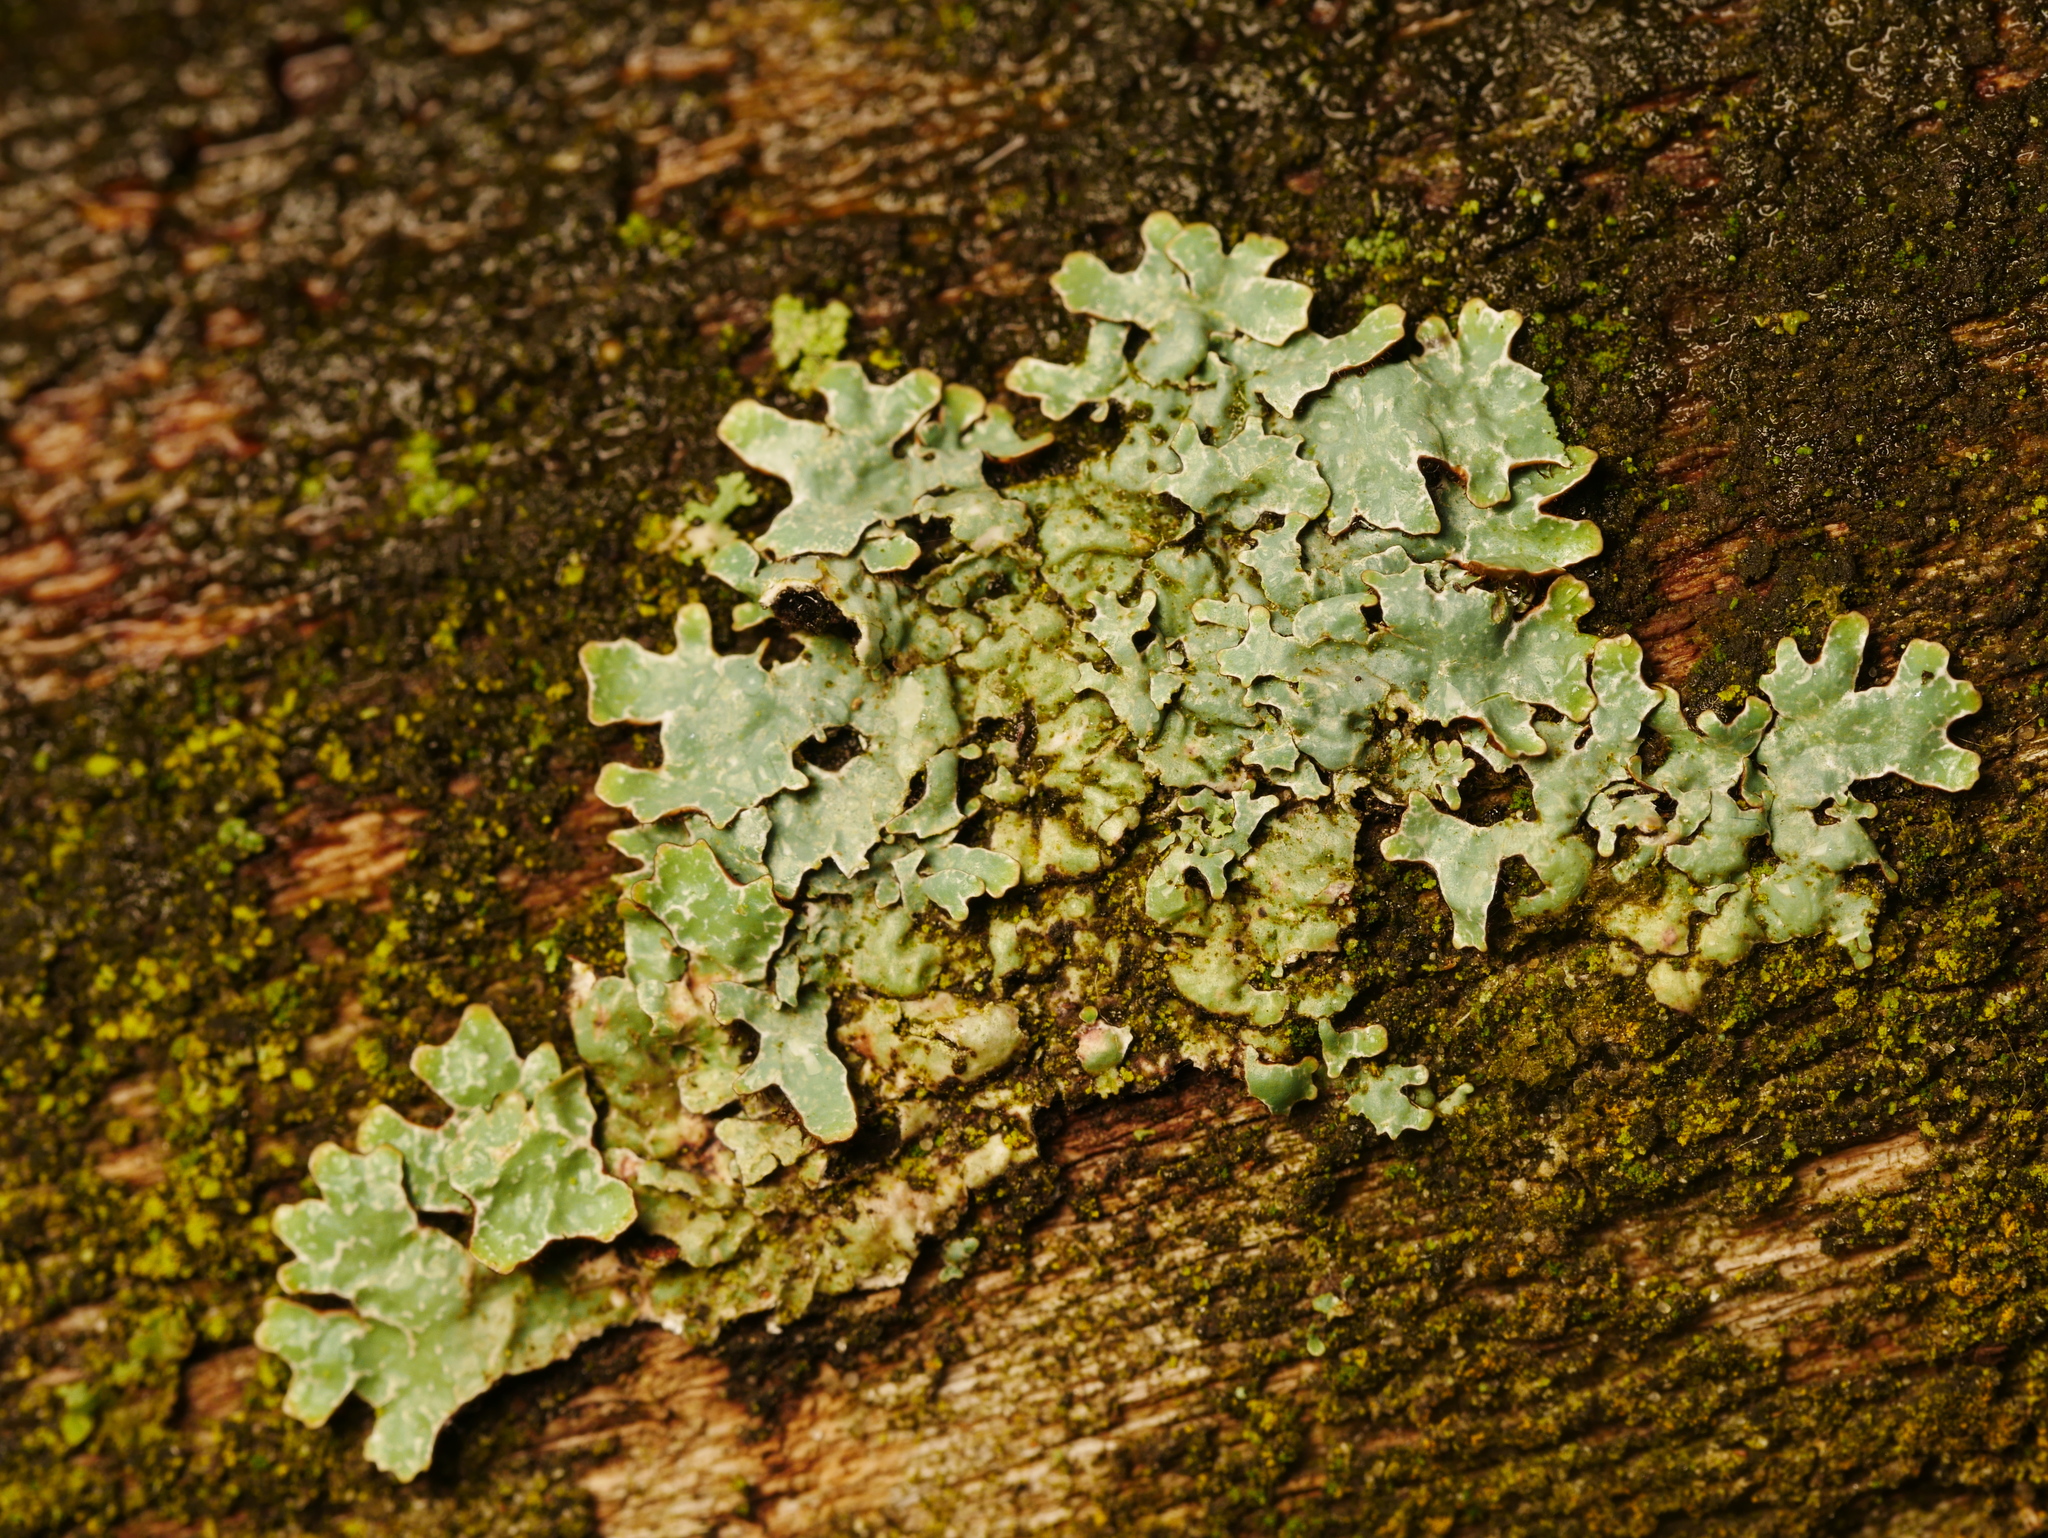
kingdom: Fungi
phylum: Ascomycota
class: Lecanoromycetes
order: Lecanorales
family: Parmeliaceae
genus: Parmelia
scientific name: Parmelia sulcata
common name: Netted shield lichen
